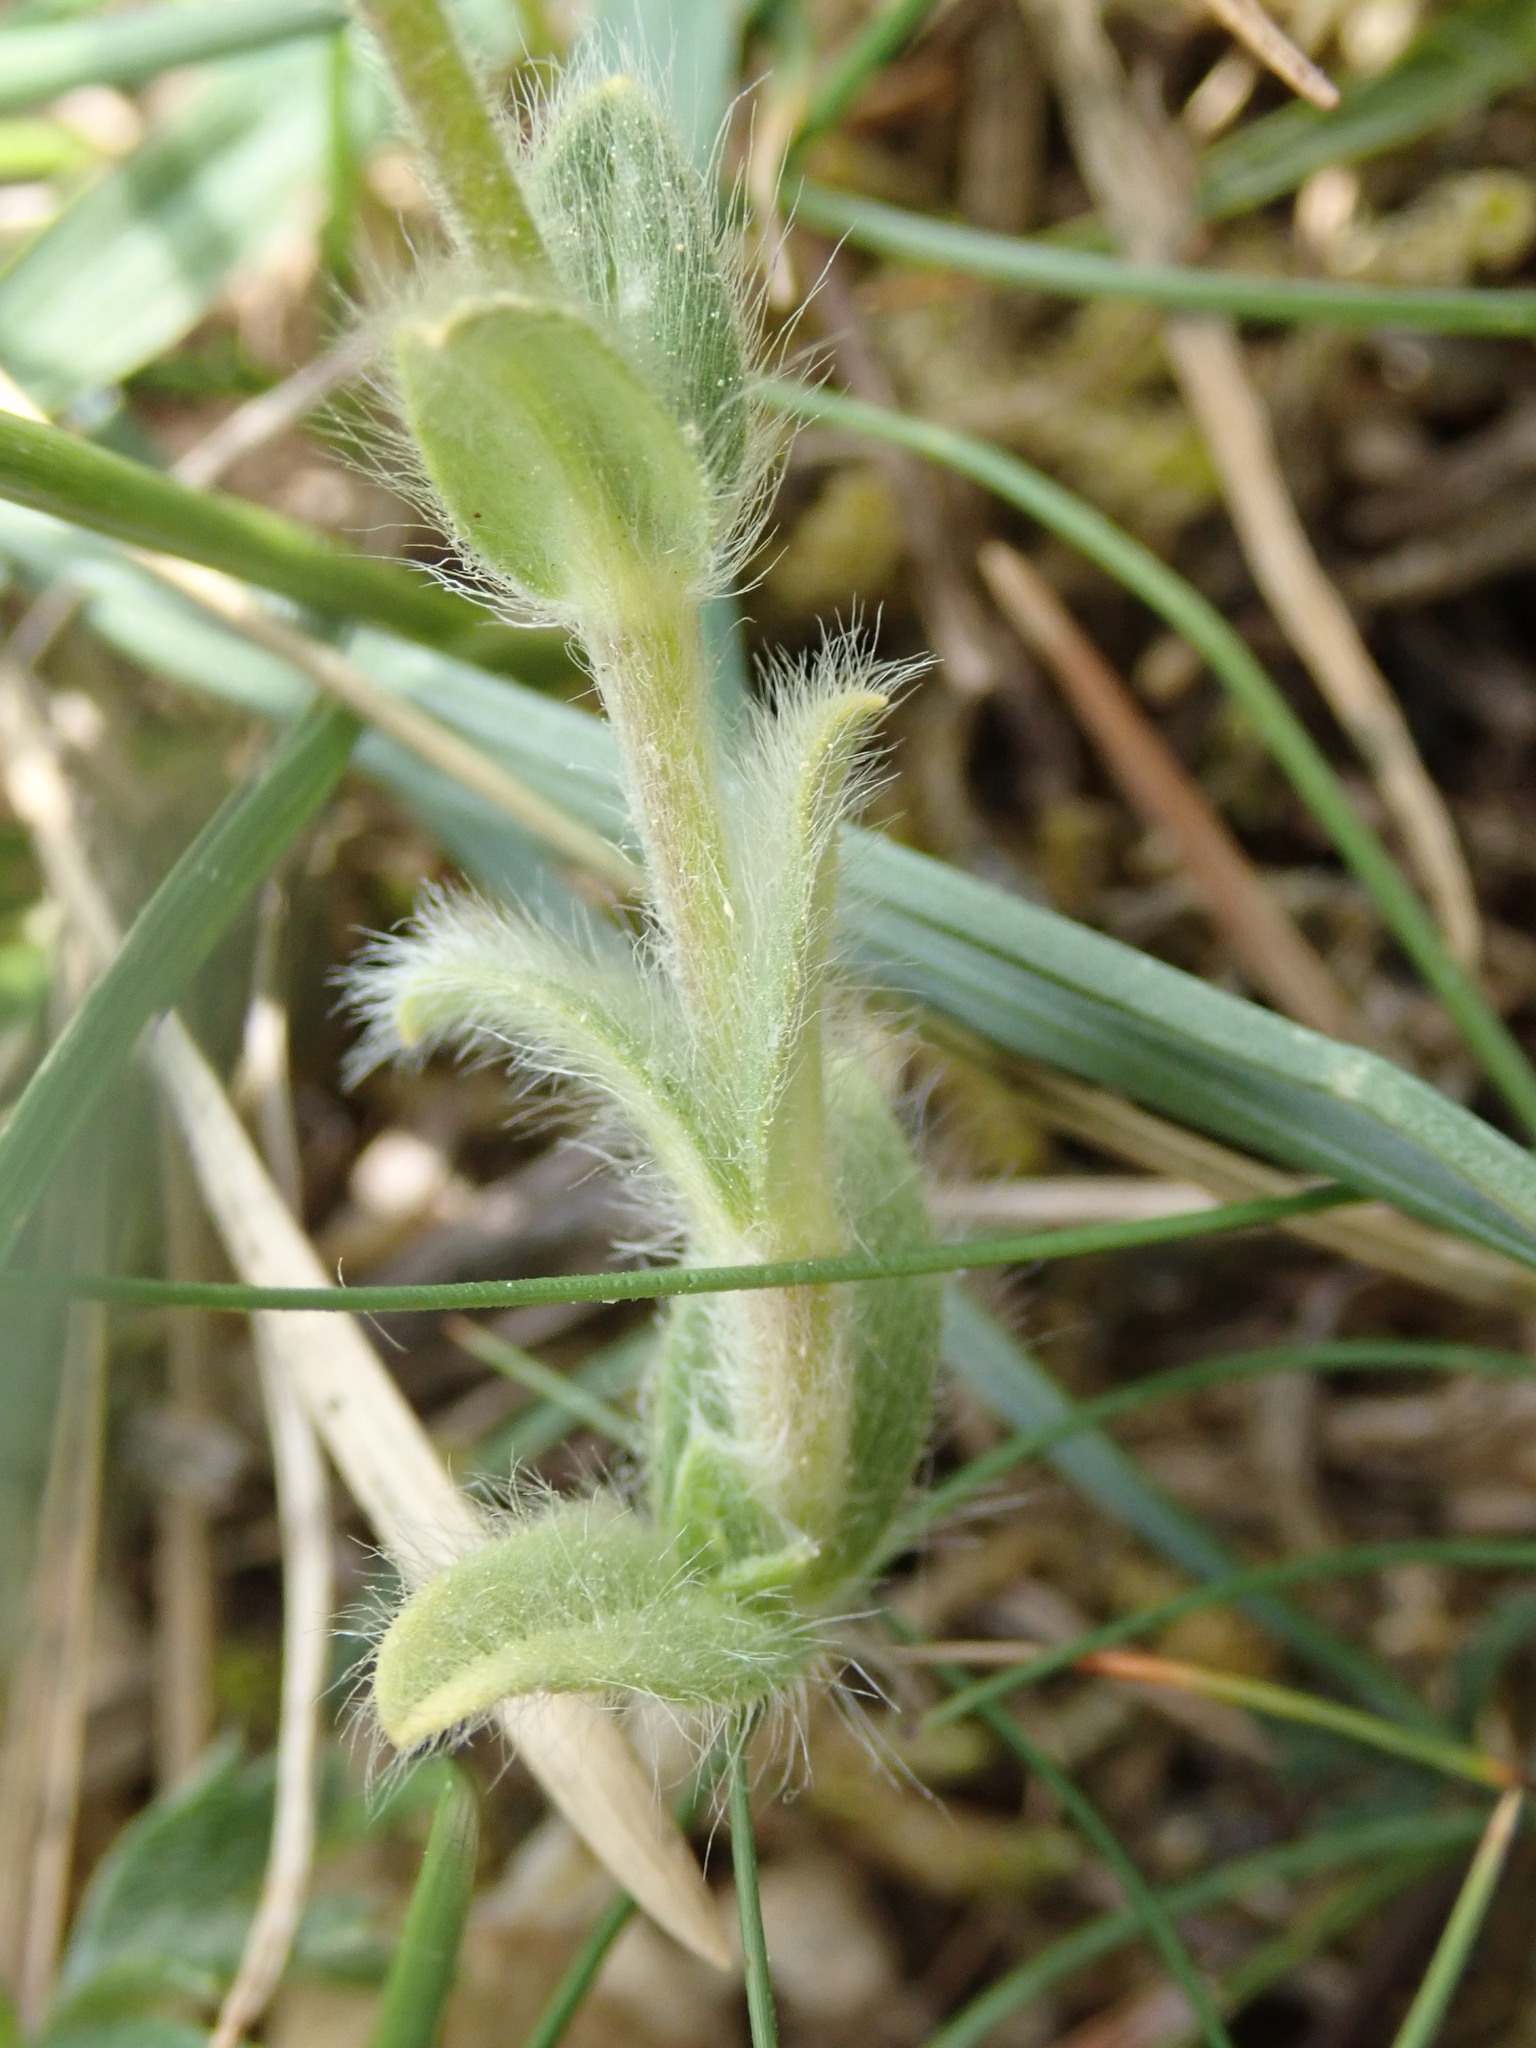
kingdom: Plantae
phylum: Tracheophyta
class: Magnoliopsida
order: Caryophyllales
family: Caryophyllaceae
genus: Cerastium
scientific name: Cerastium glomeratum
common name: Sticky chickweed
